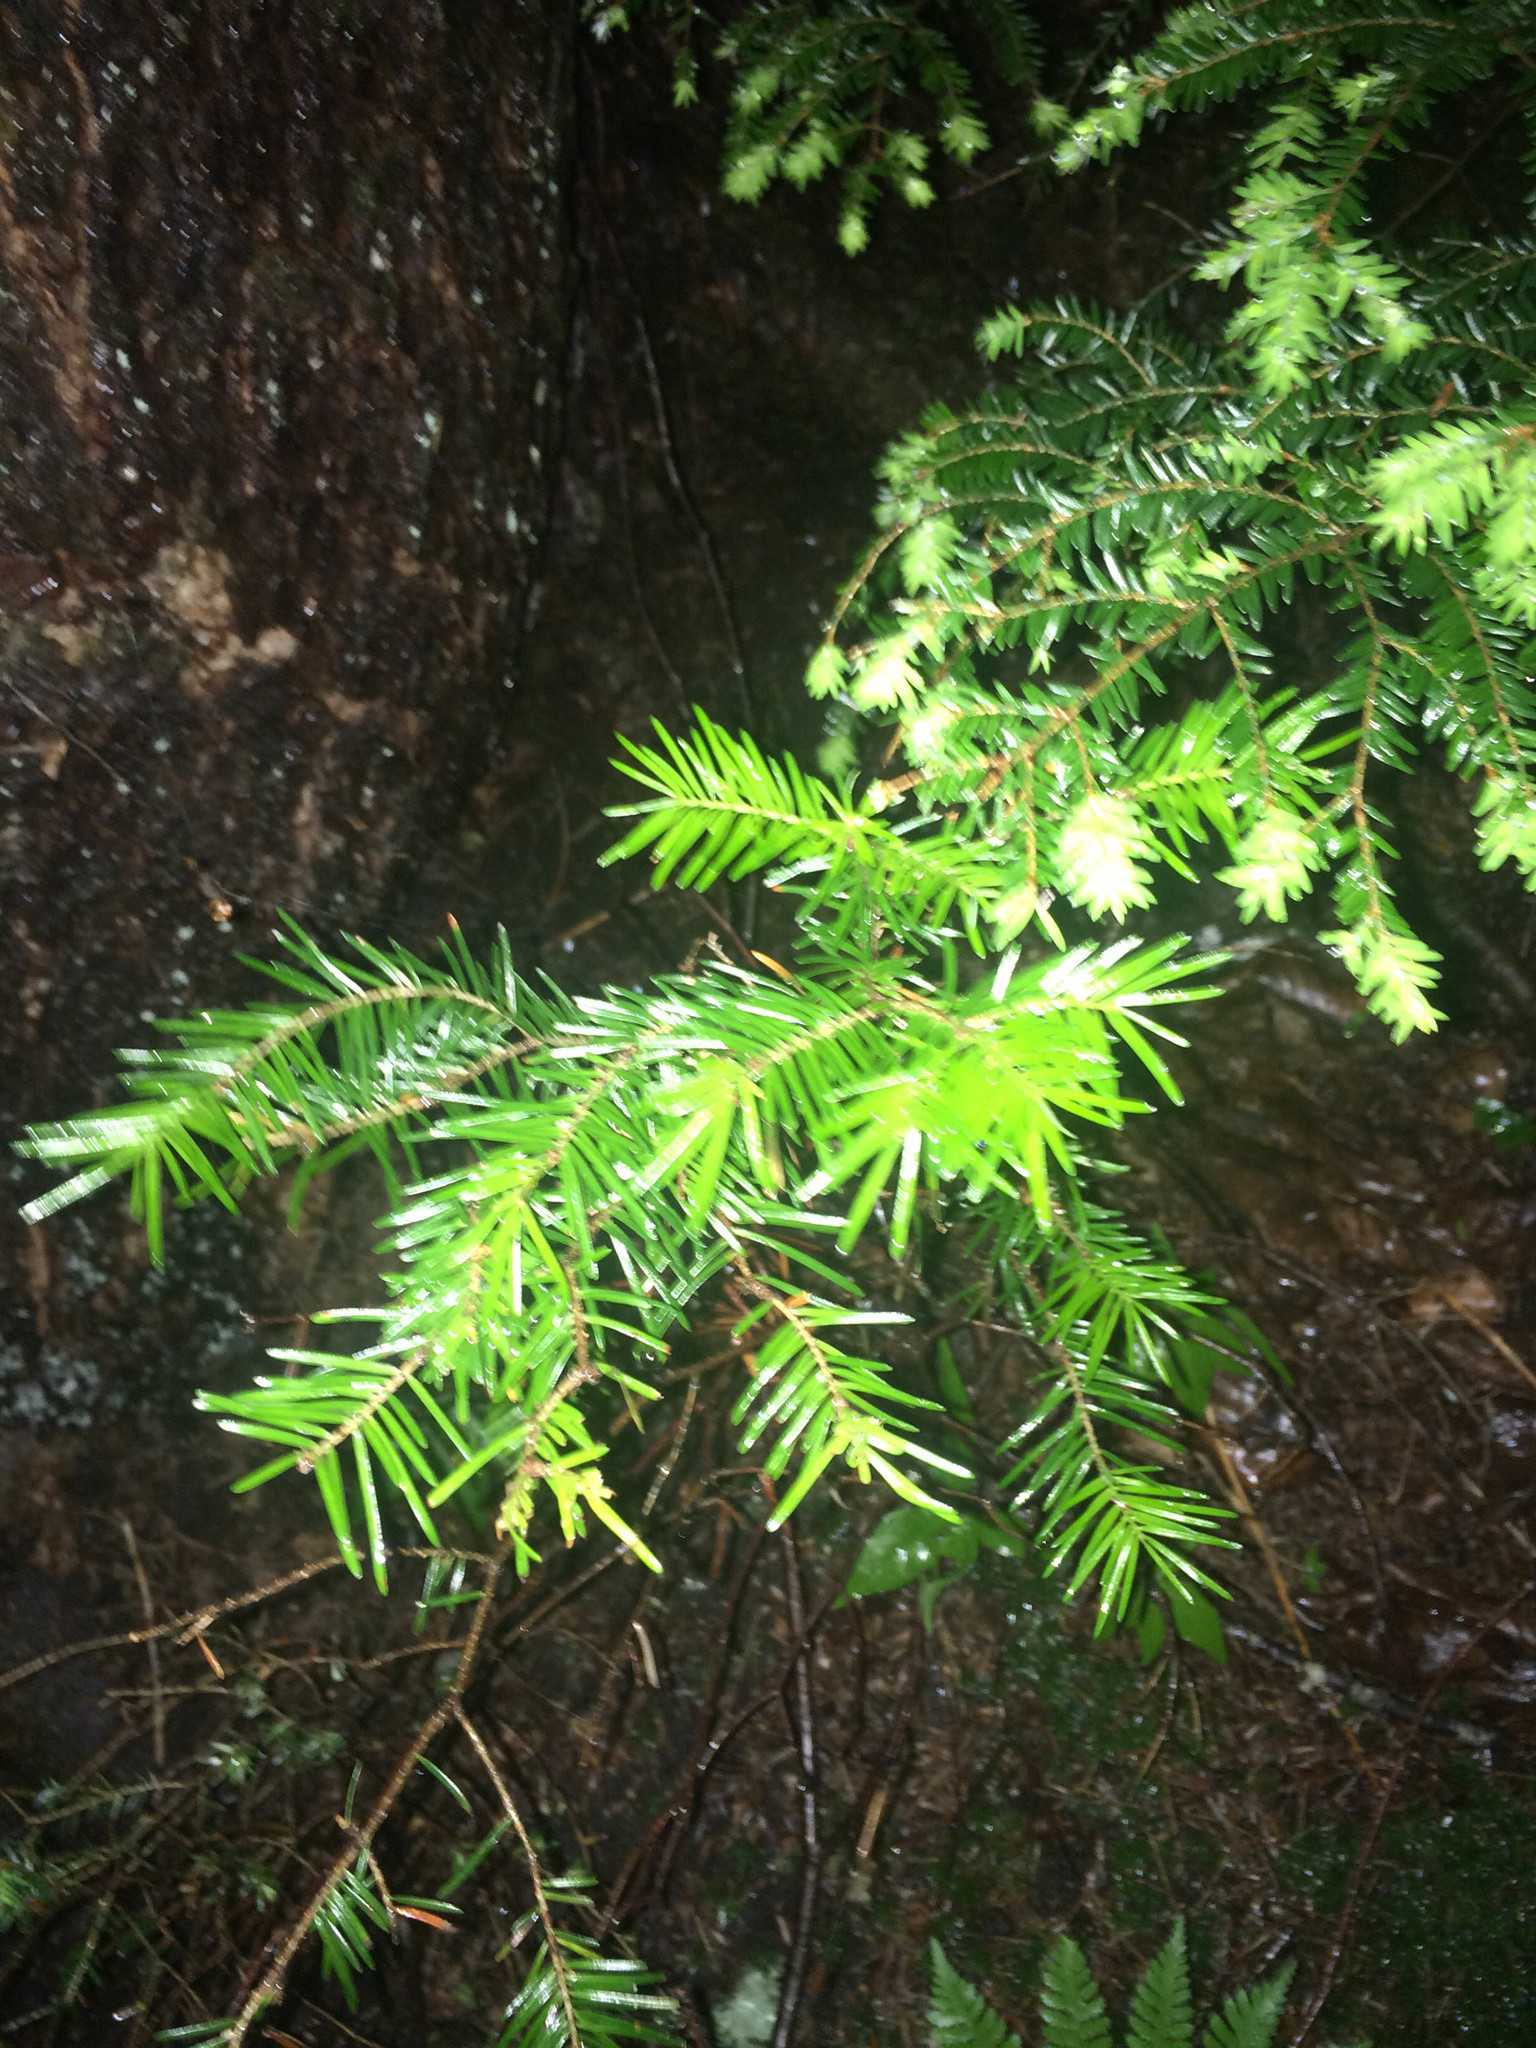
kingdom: Plantae
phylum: Tracheophyta
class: Pinopsida
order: Pinales
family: Pinaceae
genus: Tsuga
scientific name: Tsuga canadensis
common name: Eastern hemlock
